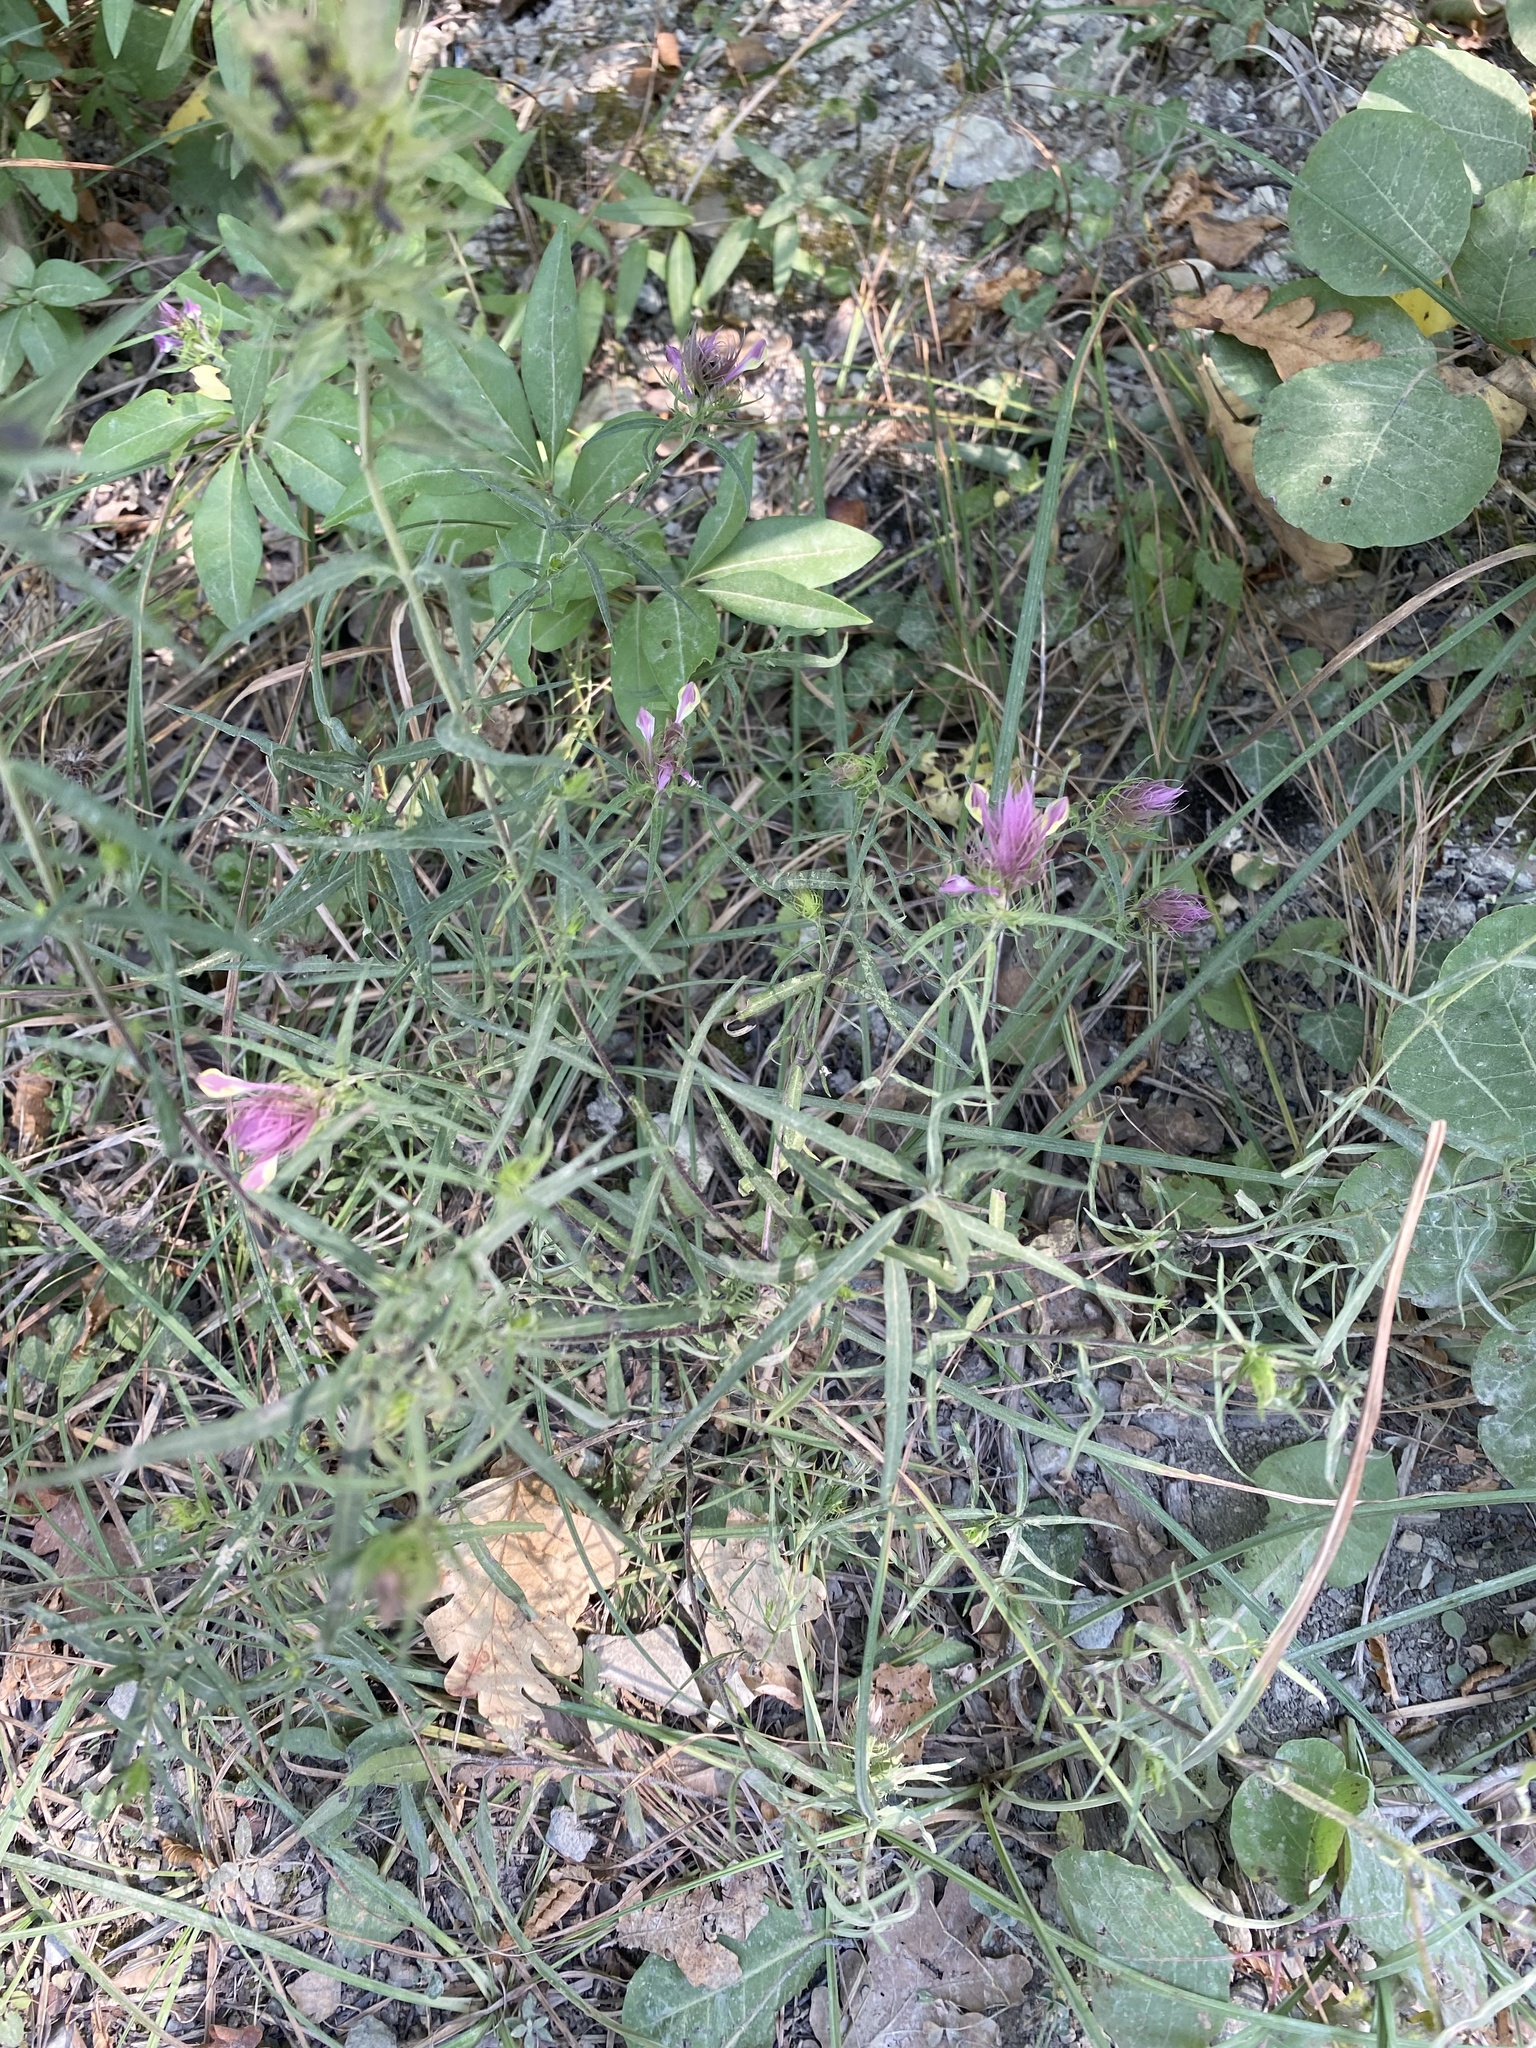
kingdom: Plantae
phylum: Tracheophyta
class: Magnoliopsida
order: Lamiales
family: Orobanchaceae
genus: Melampyrum
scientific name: Melampyrum arvense
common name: Field cow-wheat
